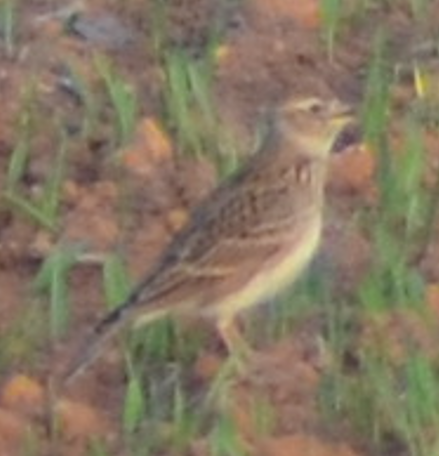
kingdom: Animalia
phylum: Chordata
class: Aves
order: Passeriformes
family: Alaudidae
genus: Alauda
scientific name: Alauda arvensis
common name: Eurasian skylark
